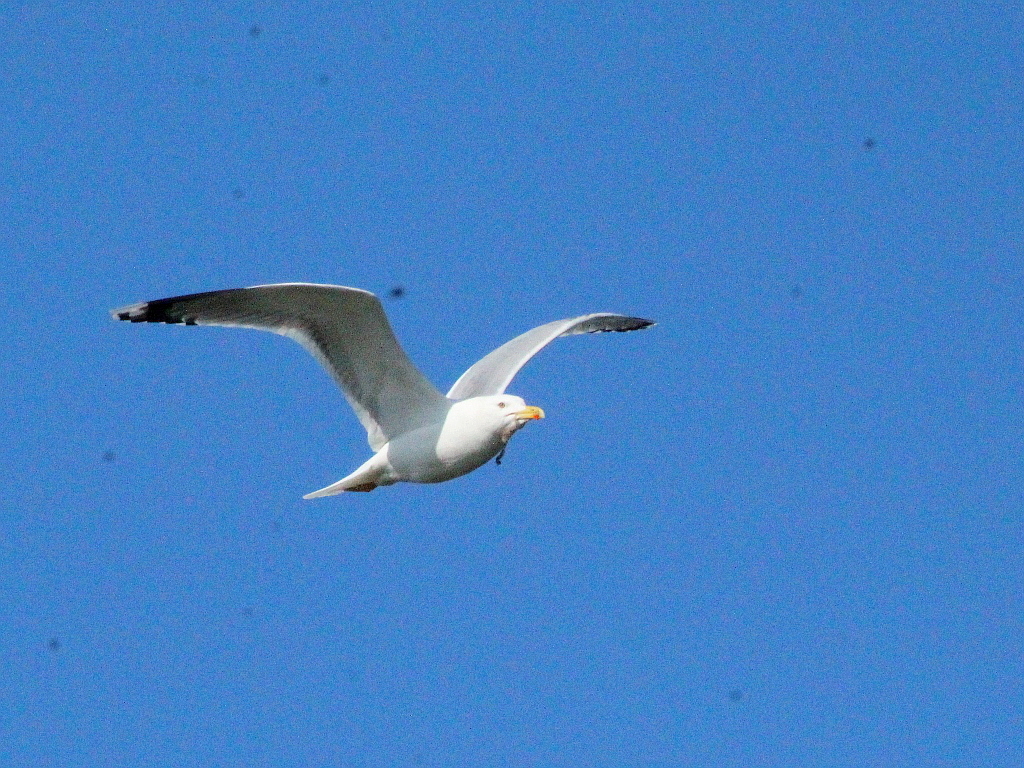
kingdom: Animalia
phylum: Chordata
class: Aves
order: Charadriiformes
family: Laridae
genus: Larus
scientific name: Larus cachinnans
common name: Caspian gull
